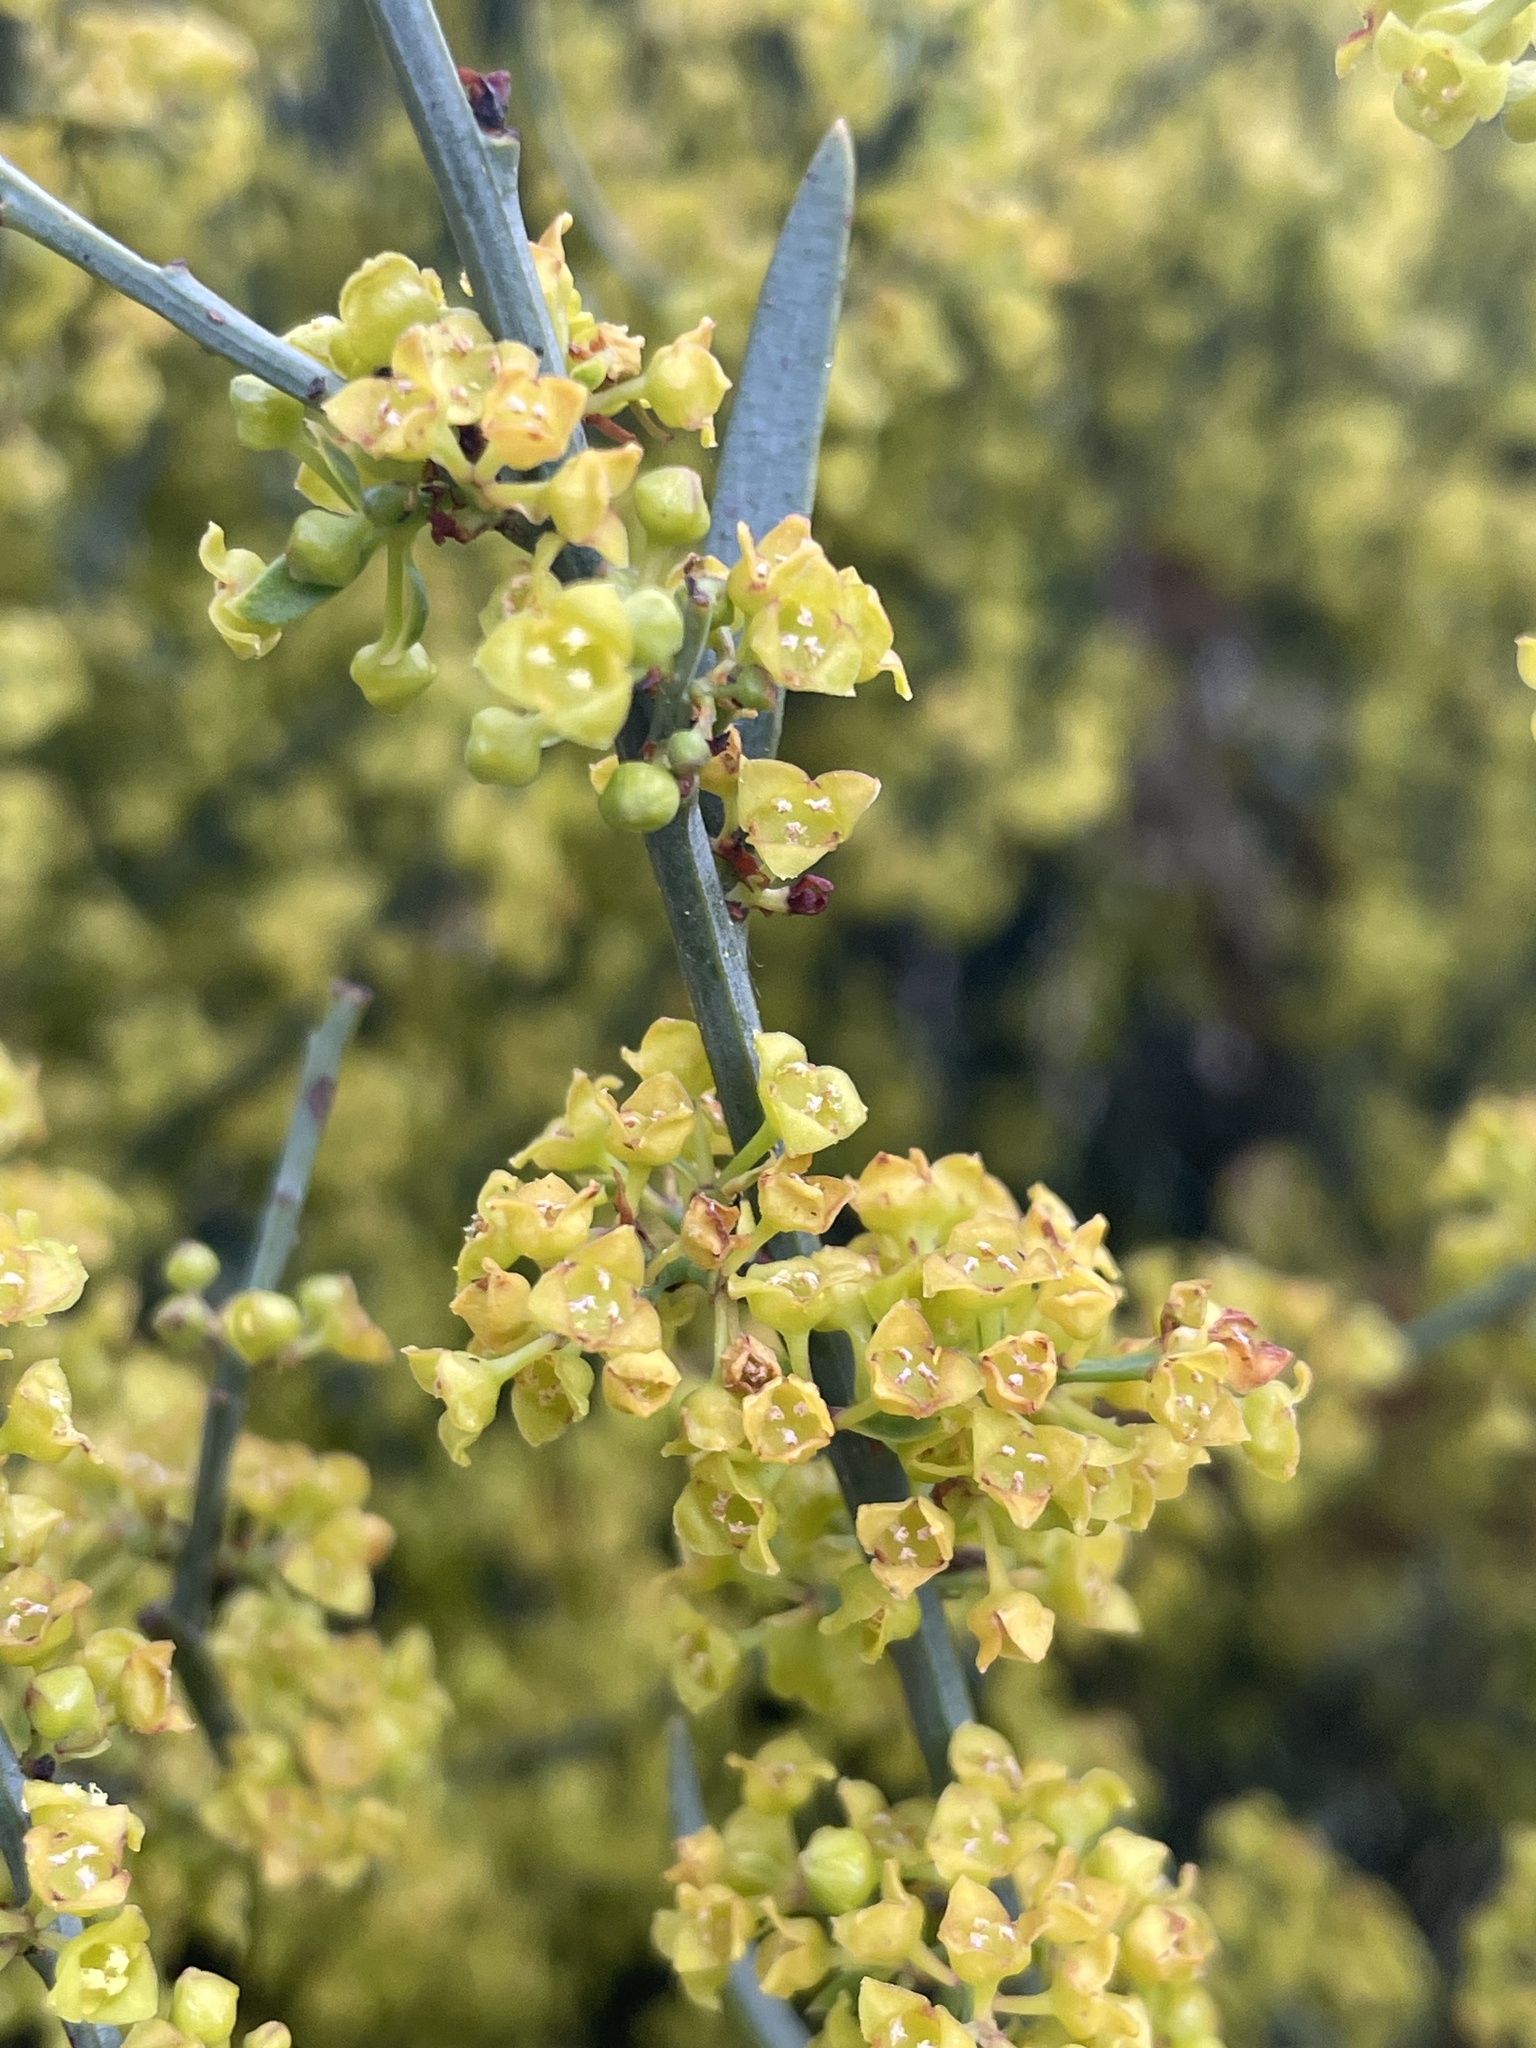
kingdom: Plantae
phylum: Tracheophyta
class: Magnoliopsida
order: Santalales
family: Santalaceae
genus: Osyris
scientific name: Osyris alba
